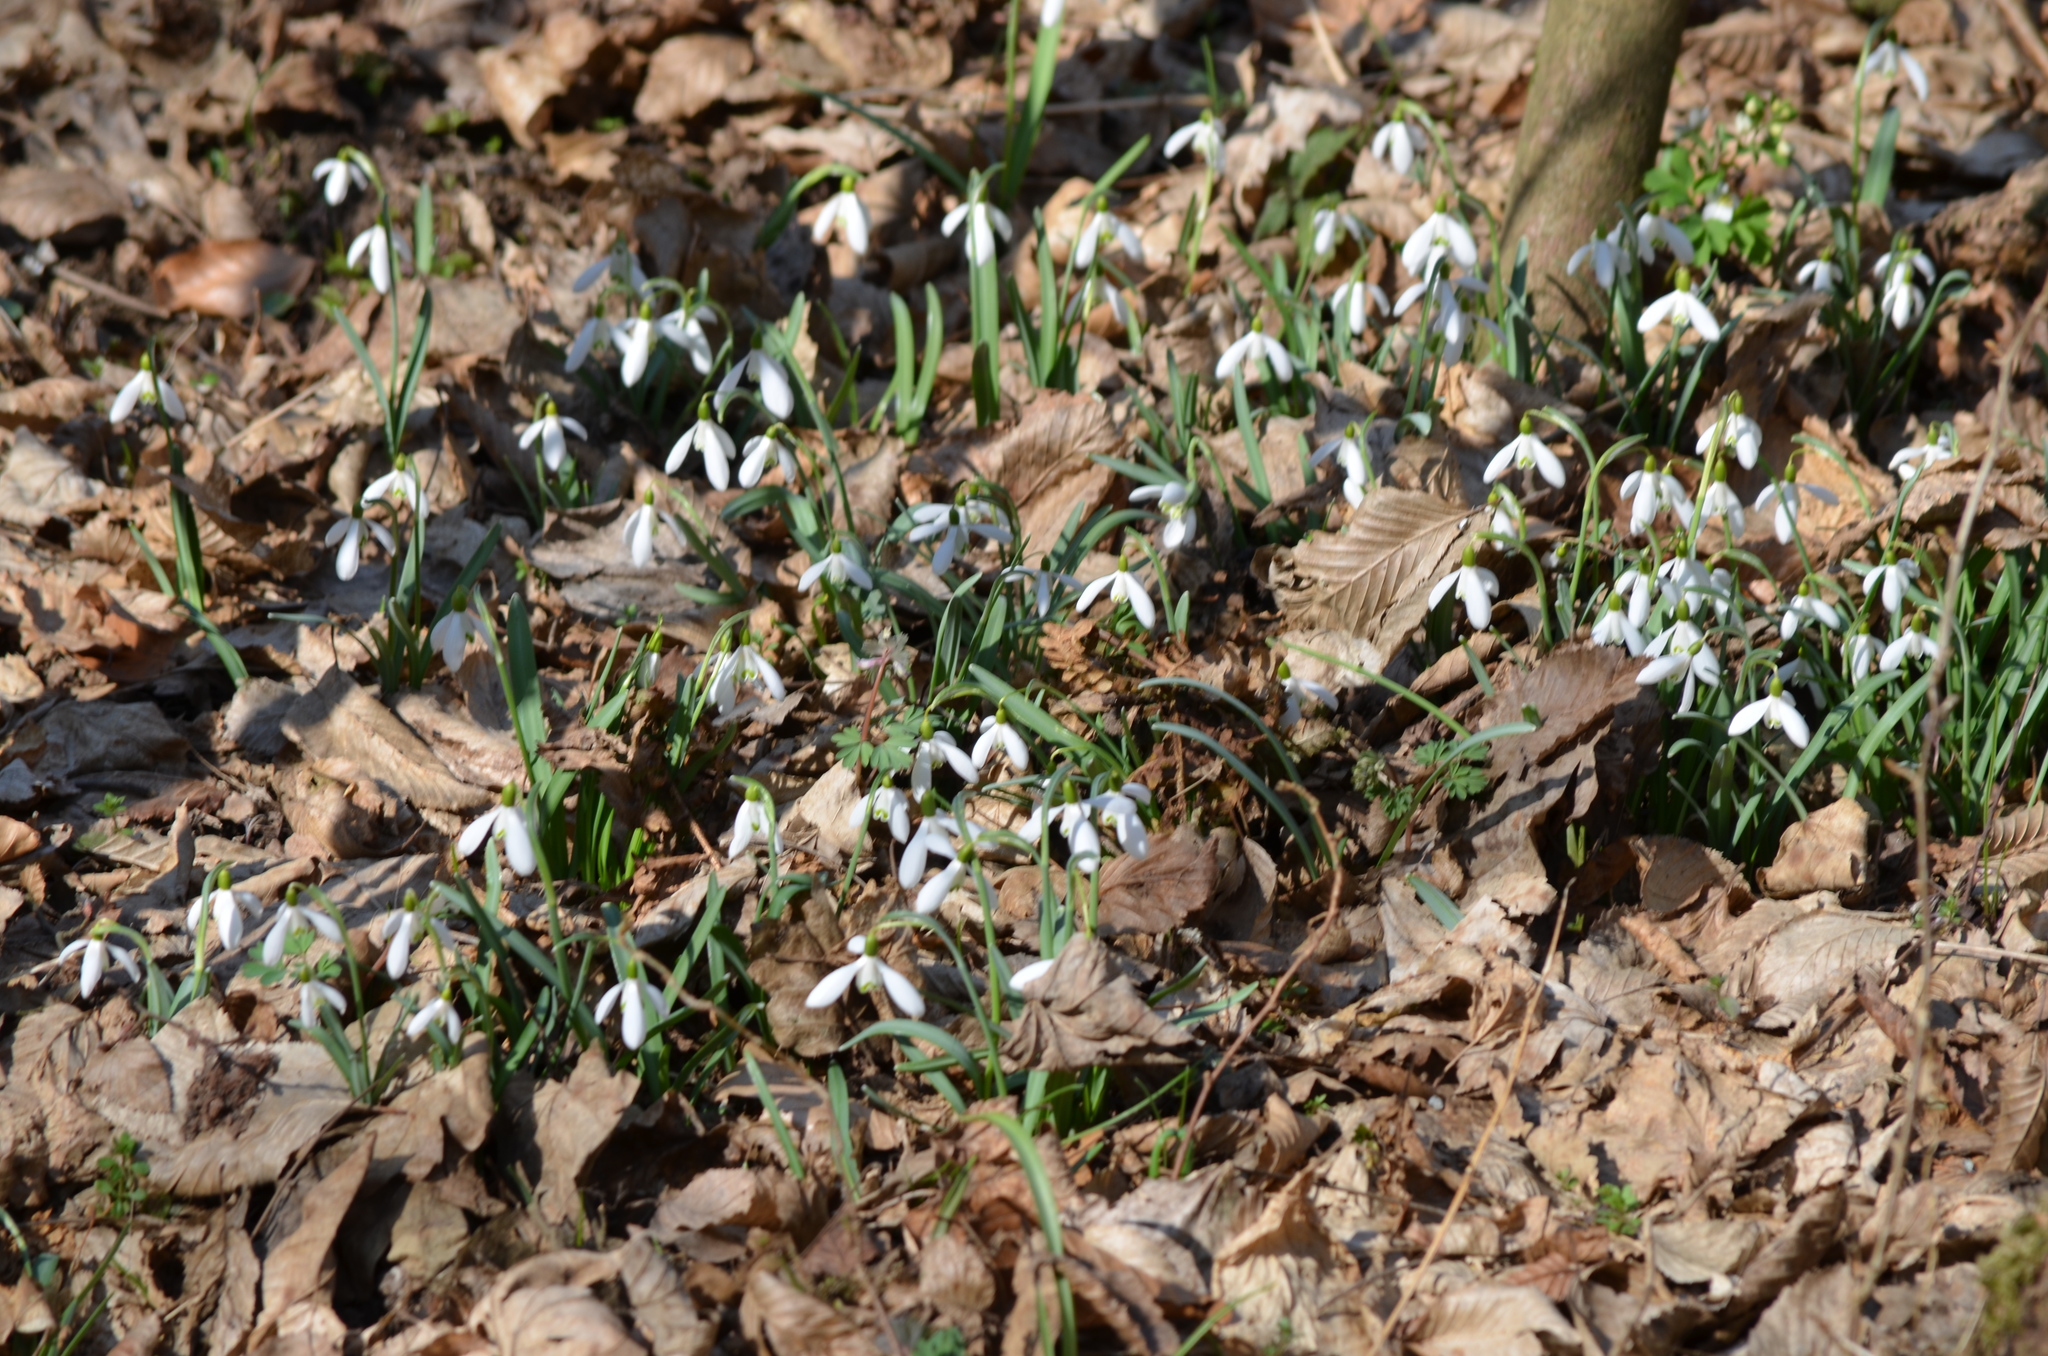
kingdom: Plantae
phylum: Tracheophyta
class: Liliopsida
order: Asparagales
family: Amaryllidaceae
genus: Galanthus
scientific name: Galanthus nivalis
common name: Snowdrop
